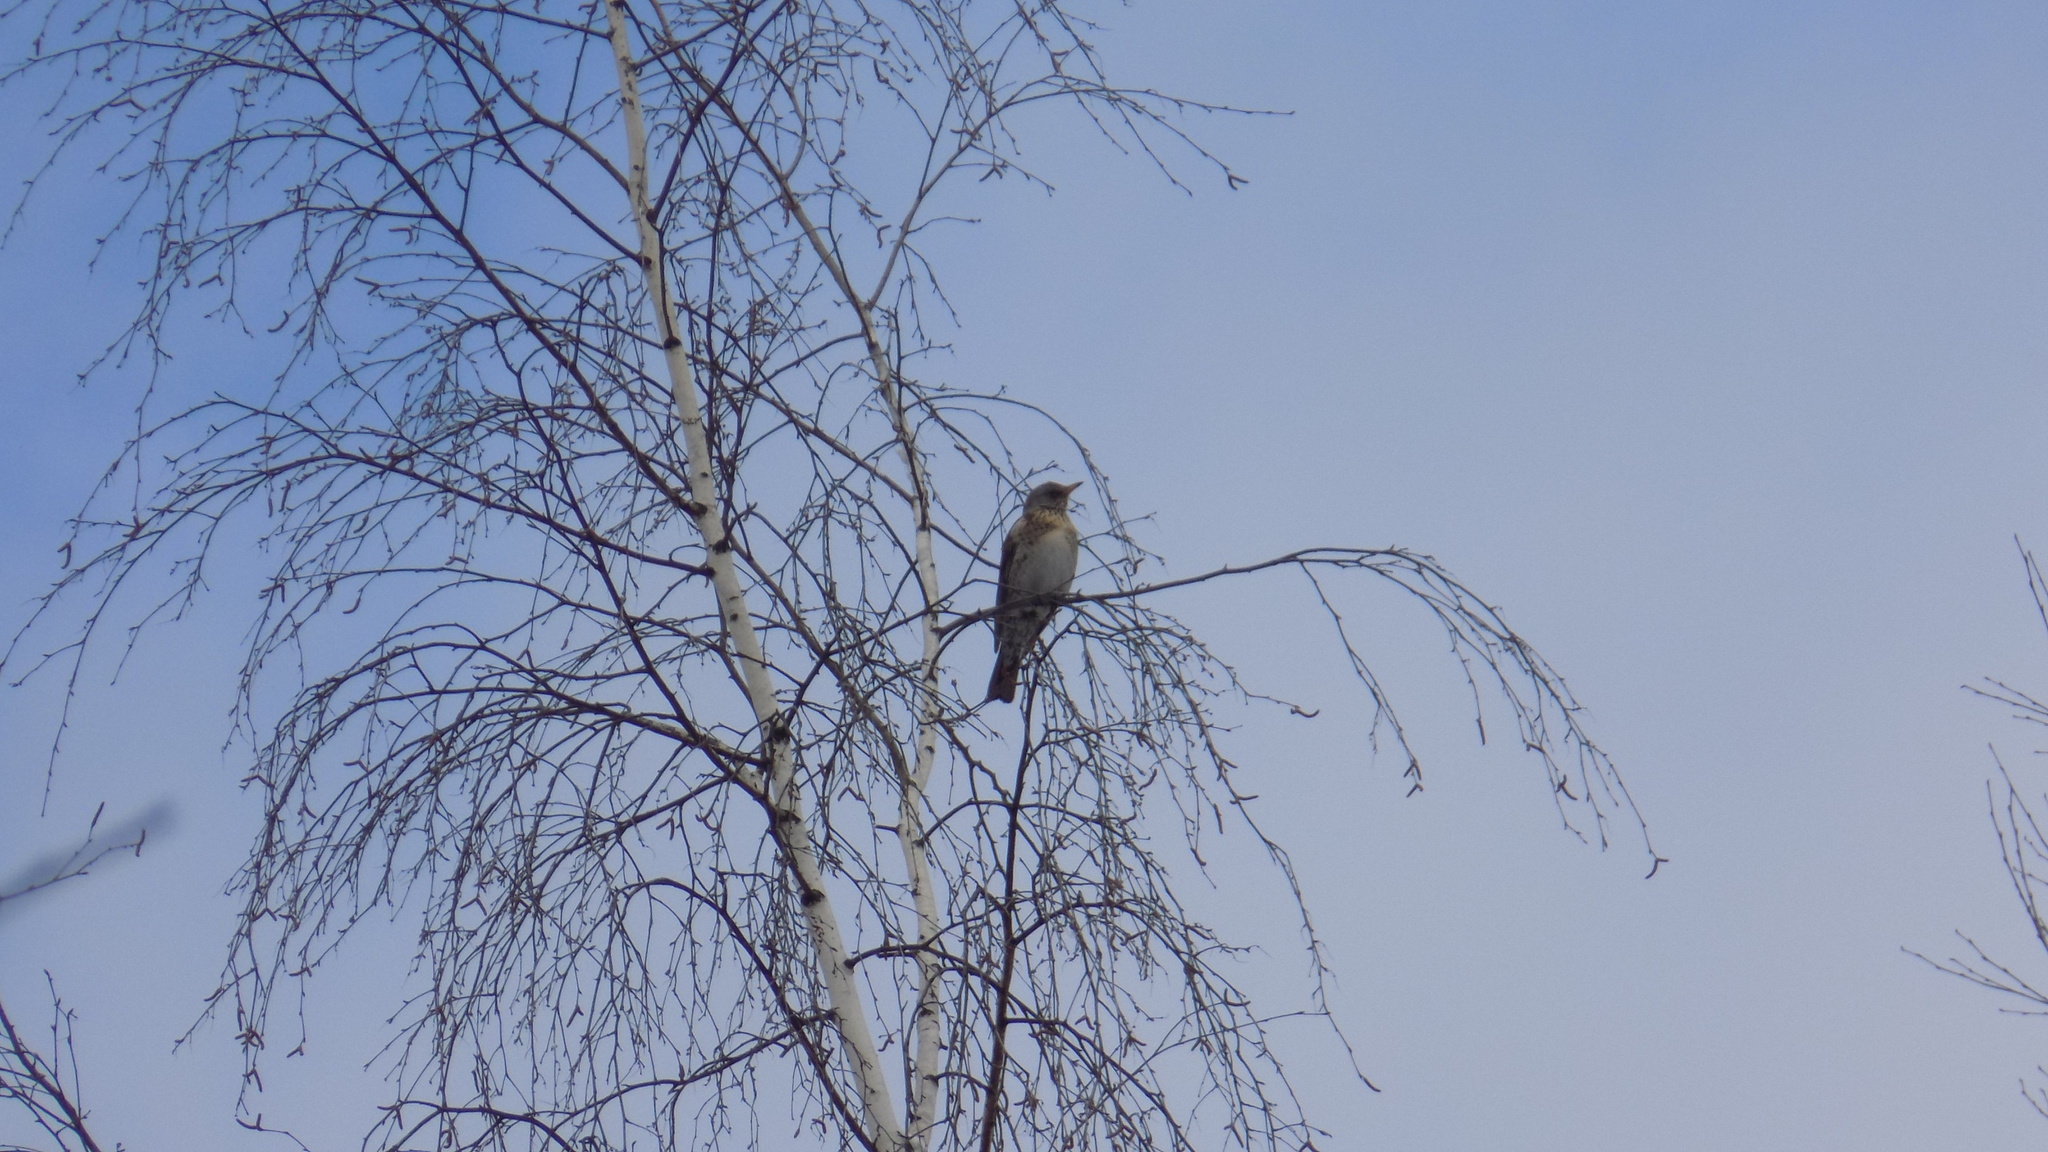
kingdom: Animalia
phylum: Chordata
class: Aves
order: Passeriformes
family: Turdidae
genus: Turdus
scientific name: Turdus pilaris
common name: Fieldfare
